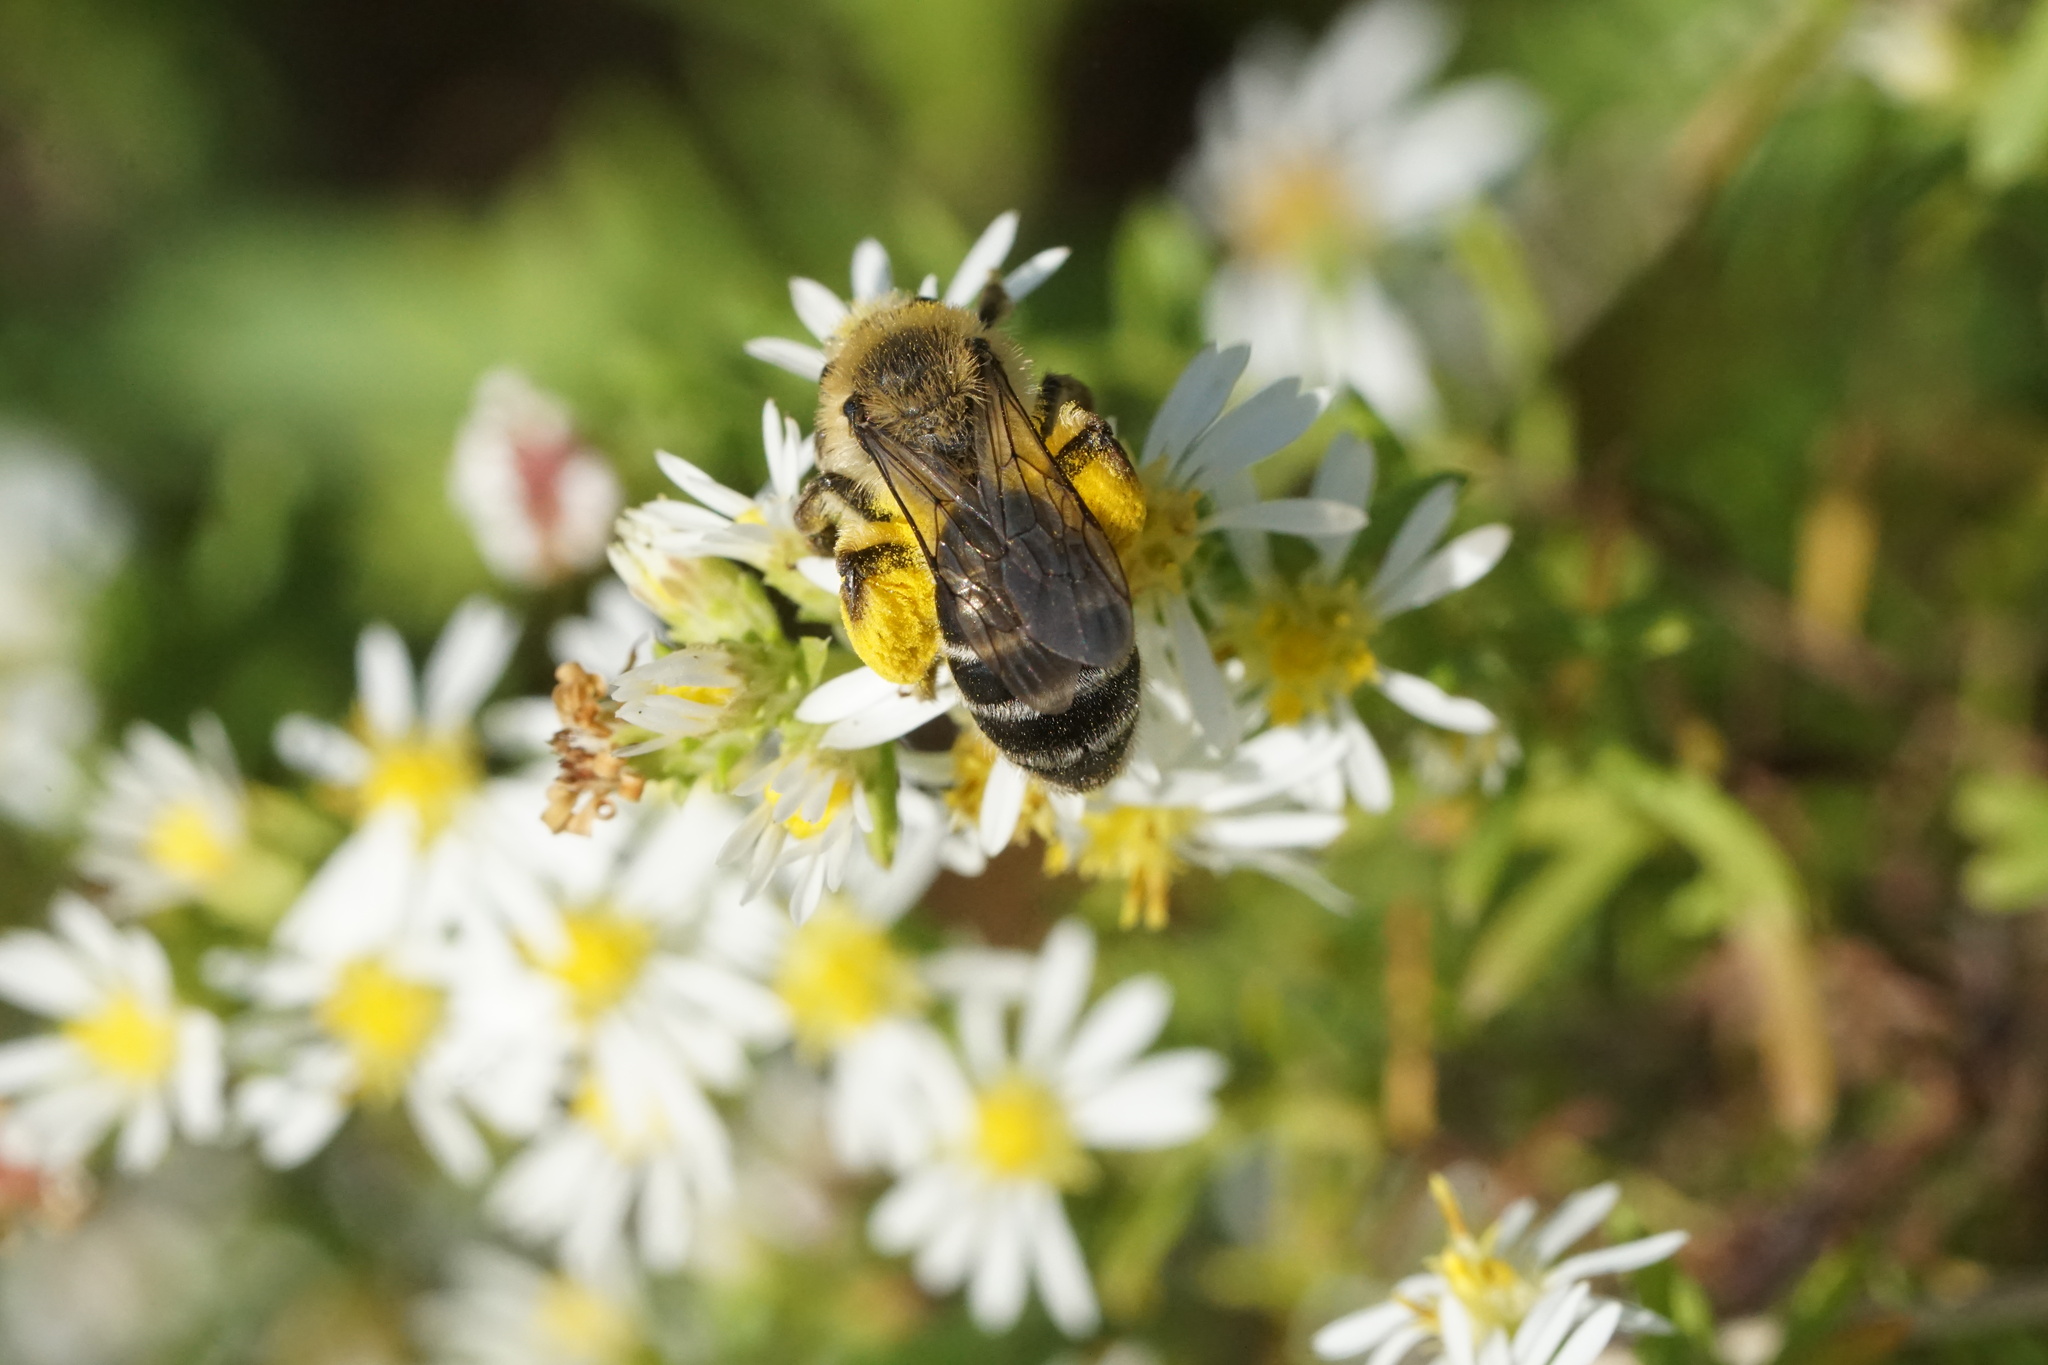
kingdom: Animalia
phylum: Arthropoda
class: Insecta
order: Hymenoptera
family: Andrenidae
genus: Andrena
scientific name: Andrena asteris
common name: Aster mining bee
